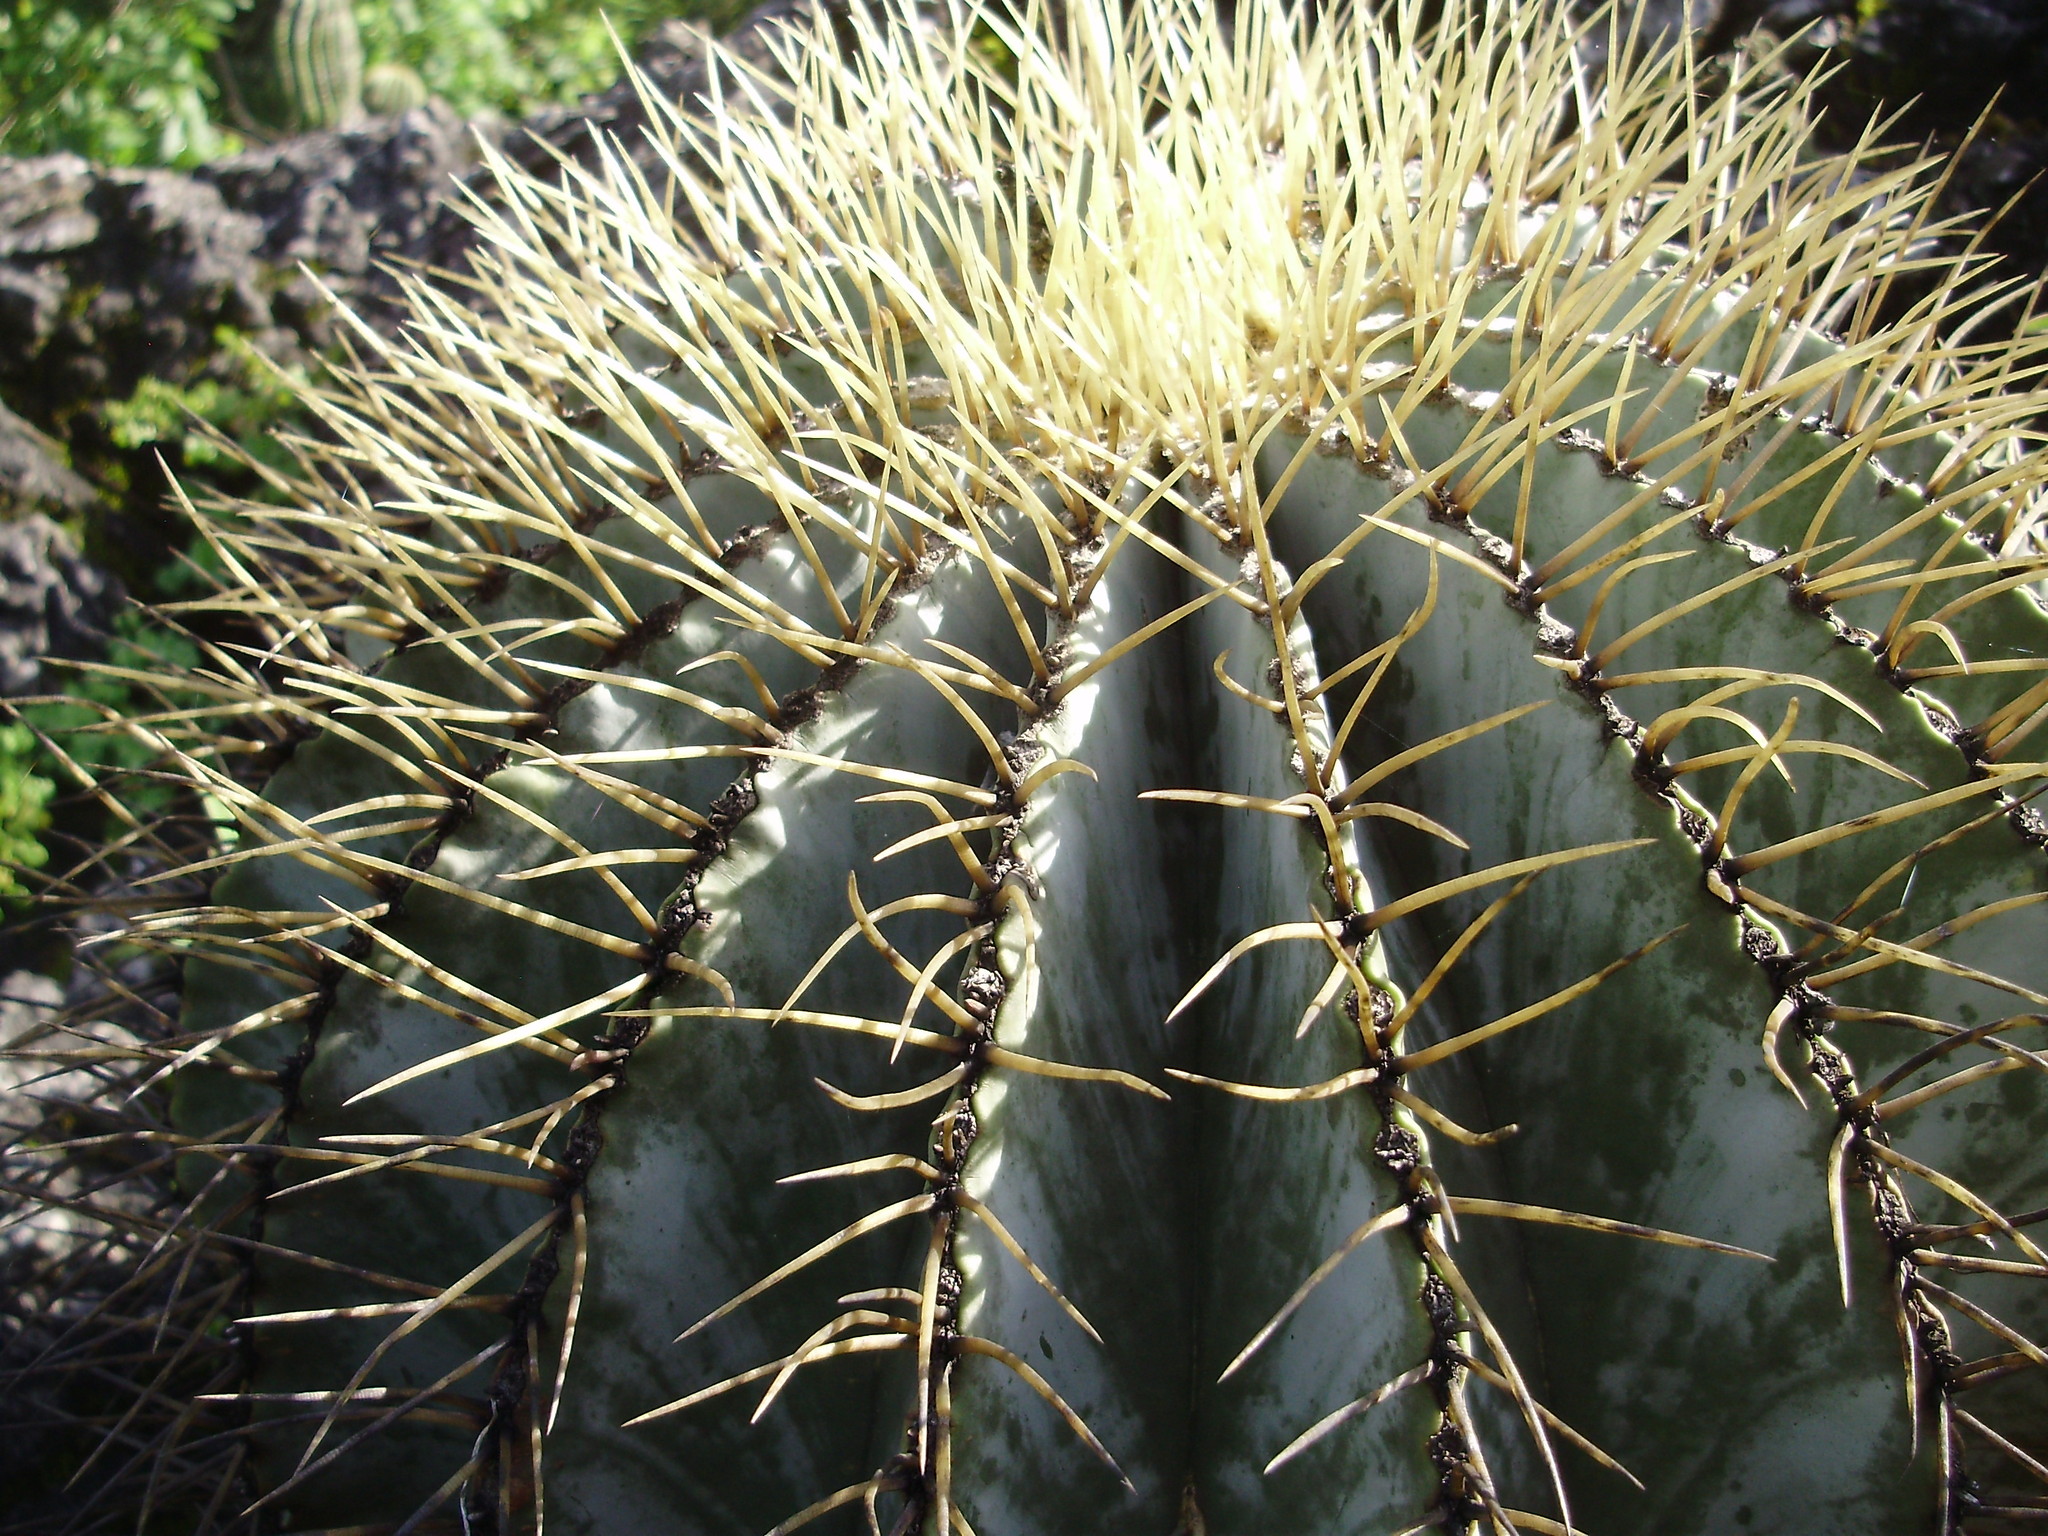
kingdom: Plantae
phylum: Tracheophyta
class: Magnoliopsida
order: Caryophyllales
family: Cactaceae
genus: Bisnaga
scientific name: Bisnaga glaucescens
